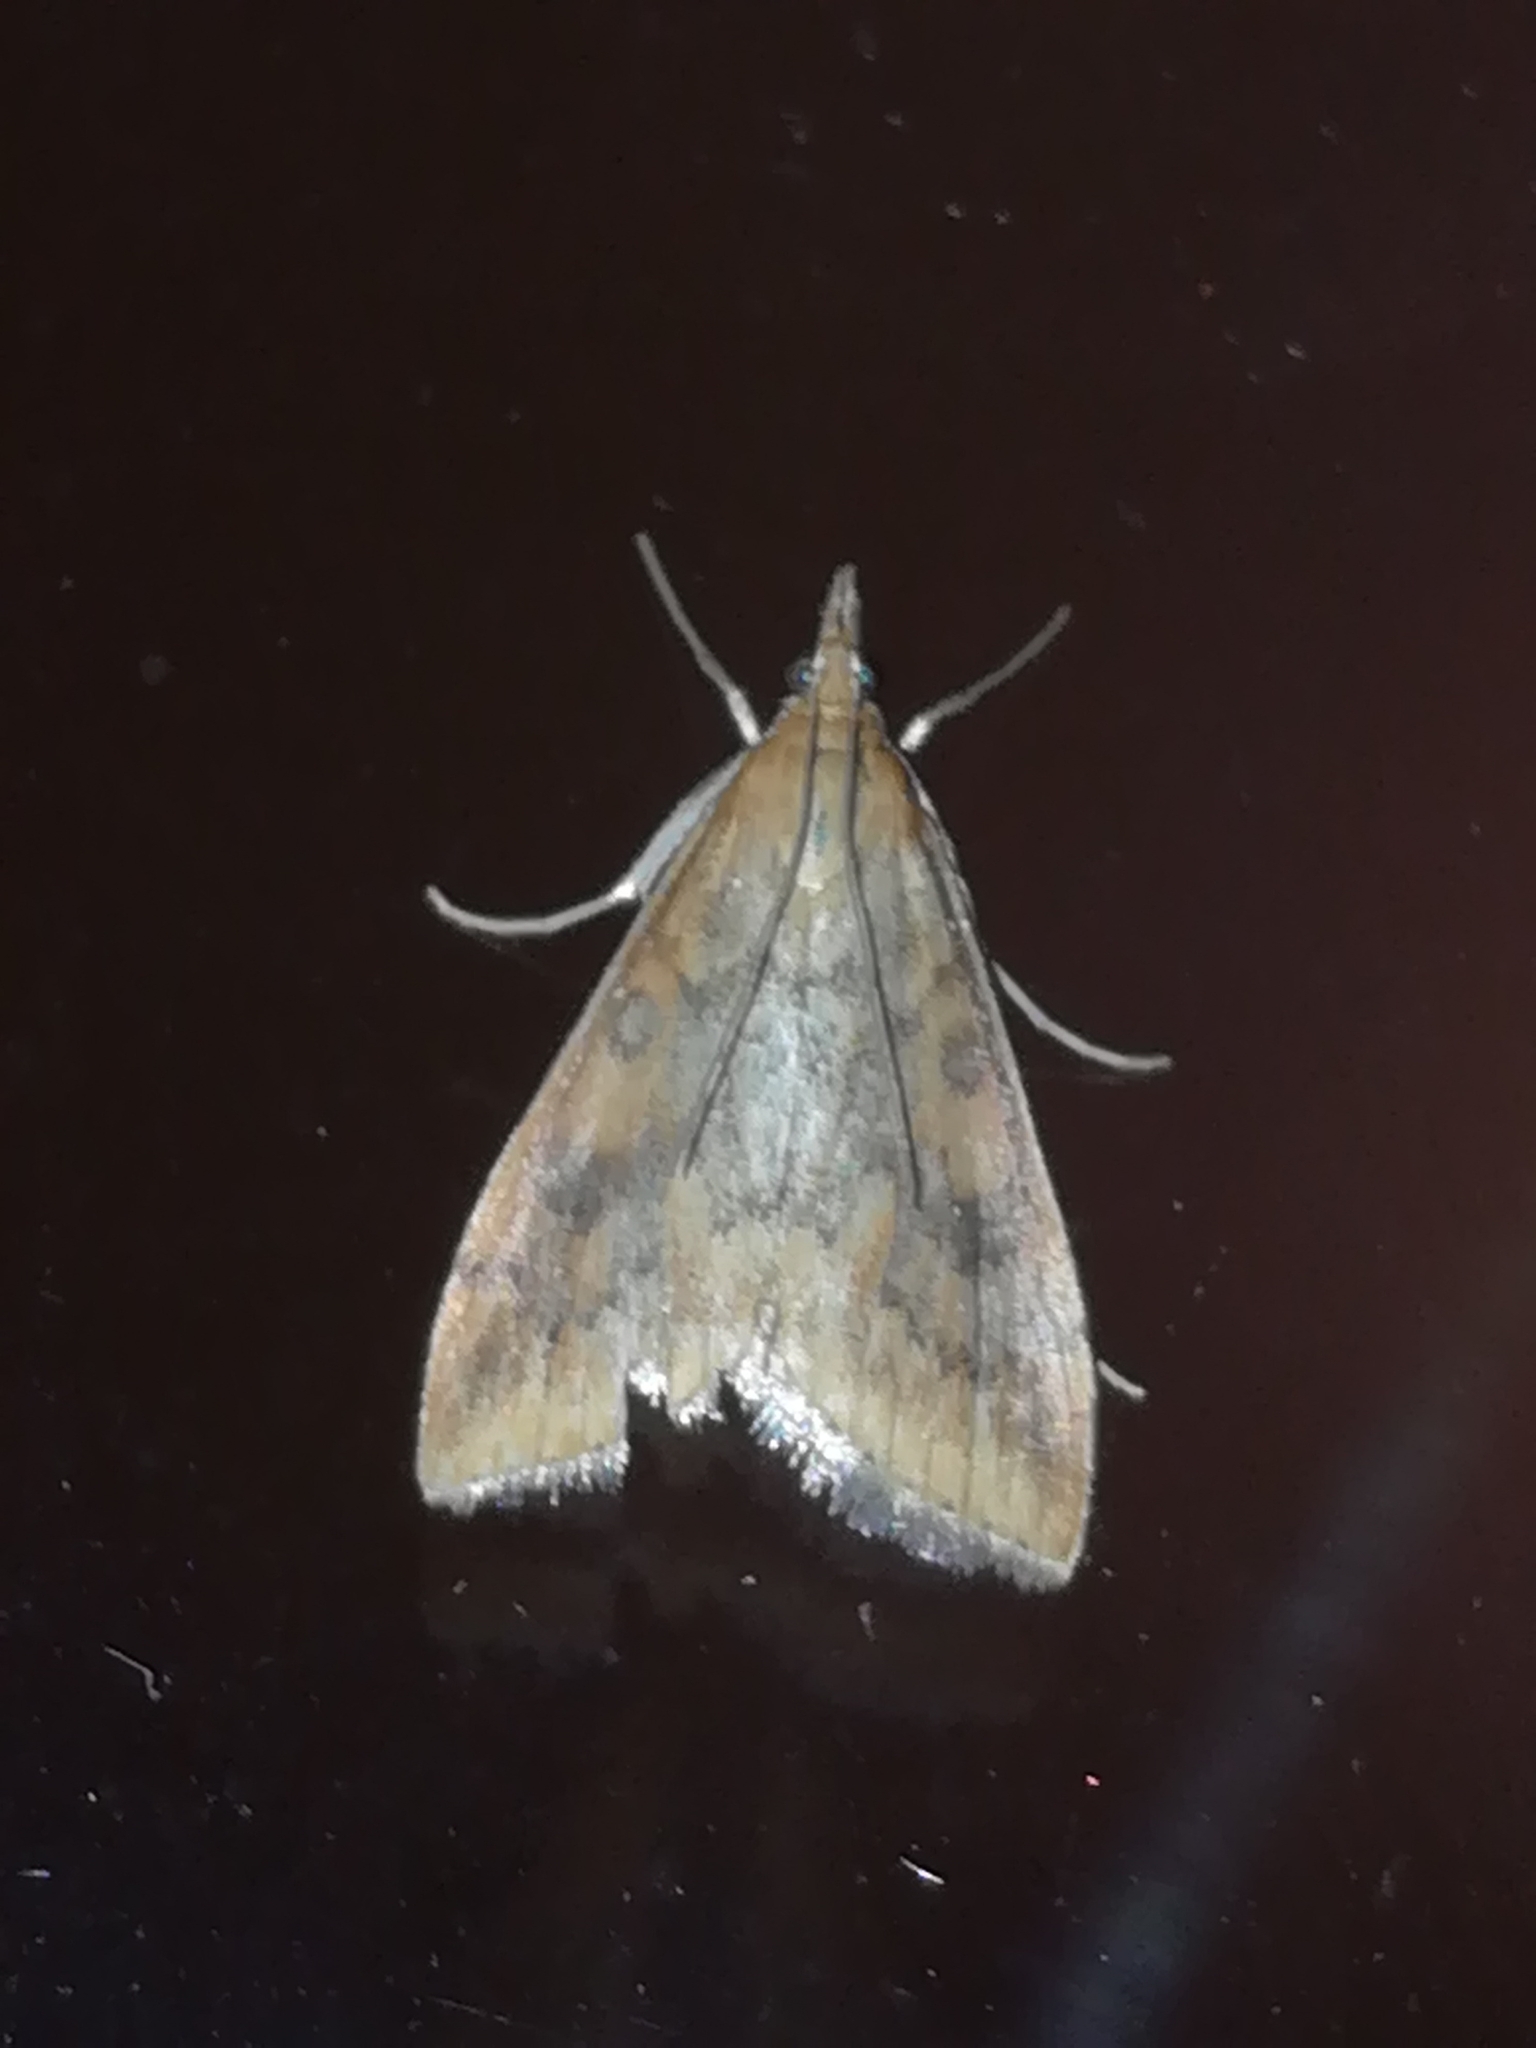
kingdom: Animalia
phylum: Arthropoda
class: Insecta
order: Lepidoptera
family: Crambidae
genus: Udea
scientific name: Udea ferrugalis
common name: Rusty dot
